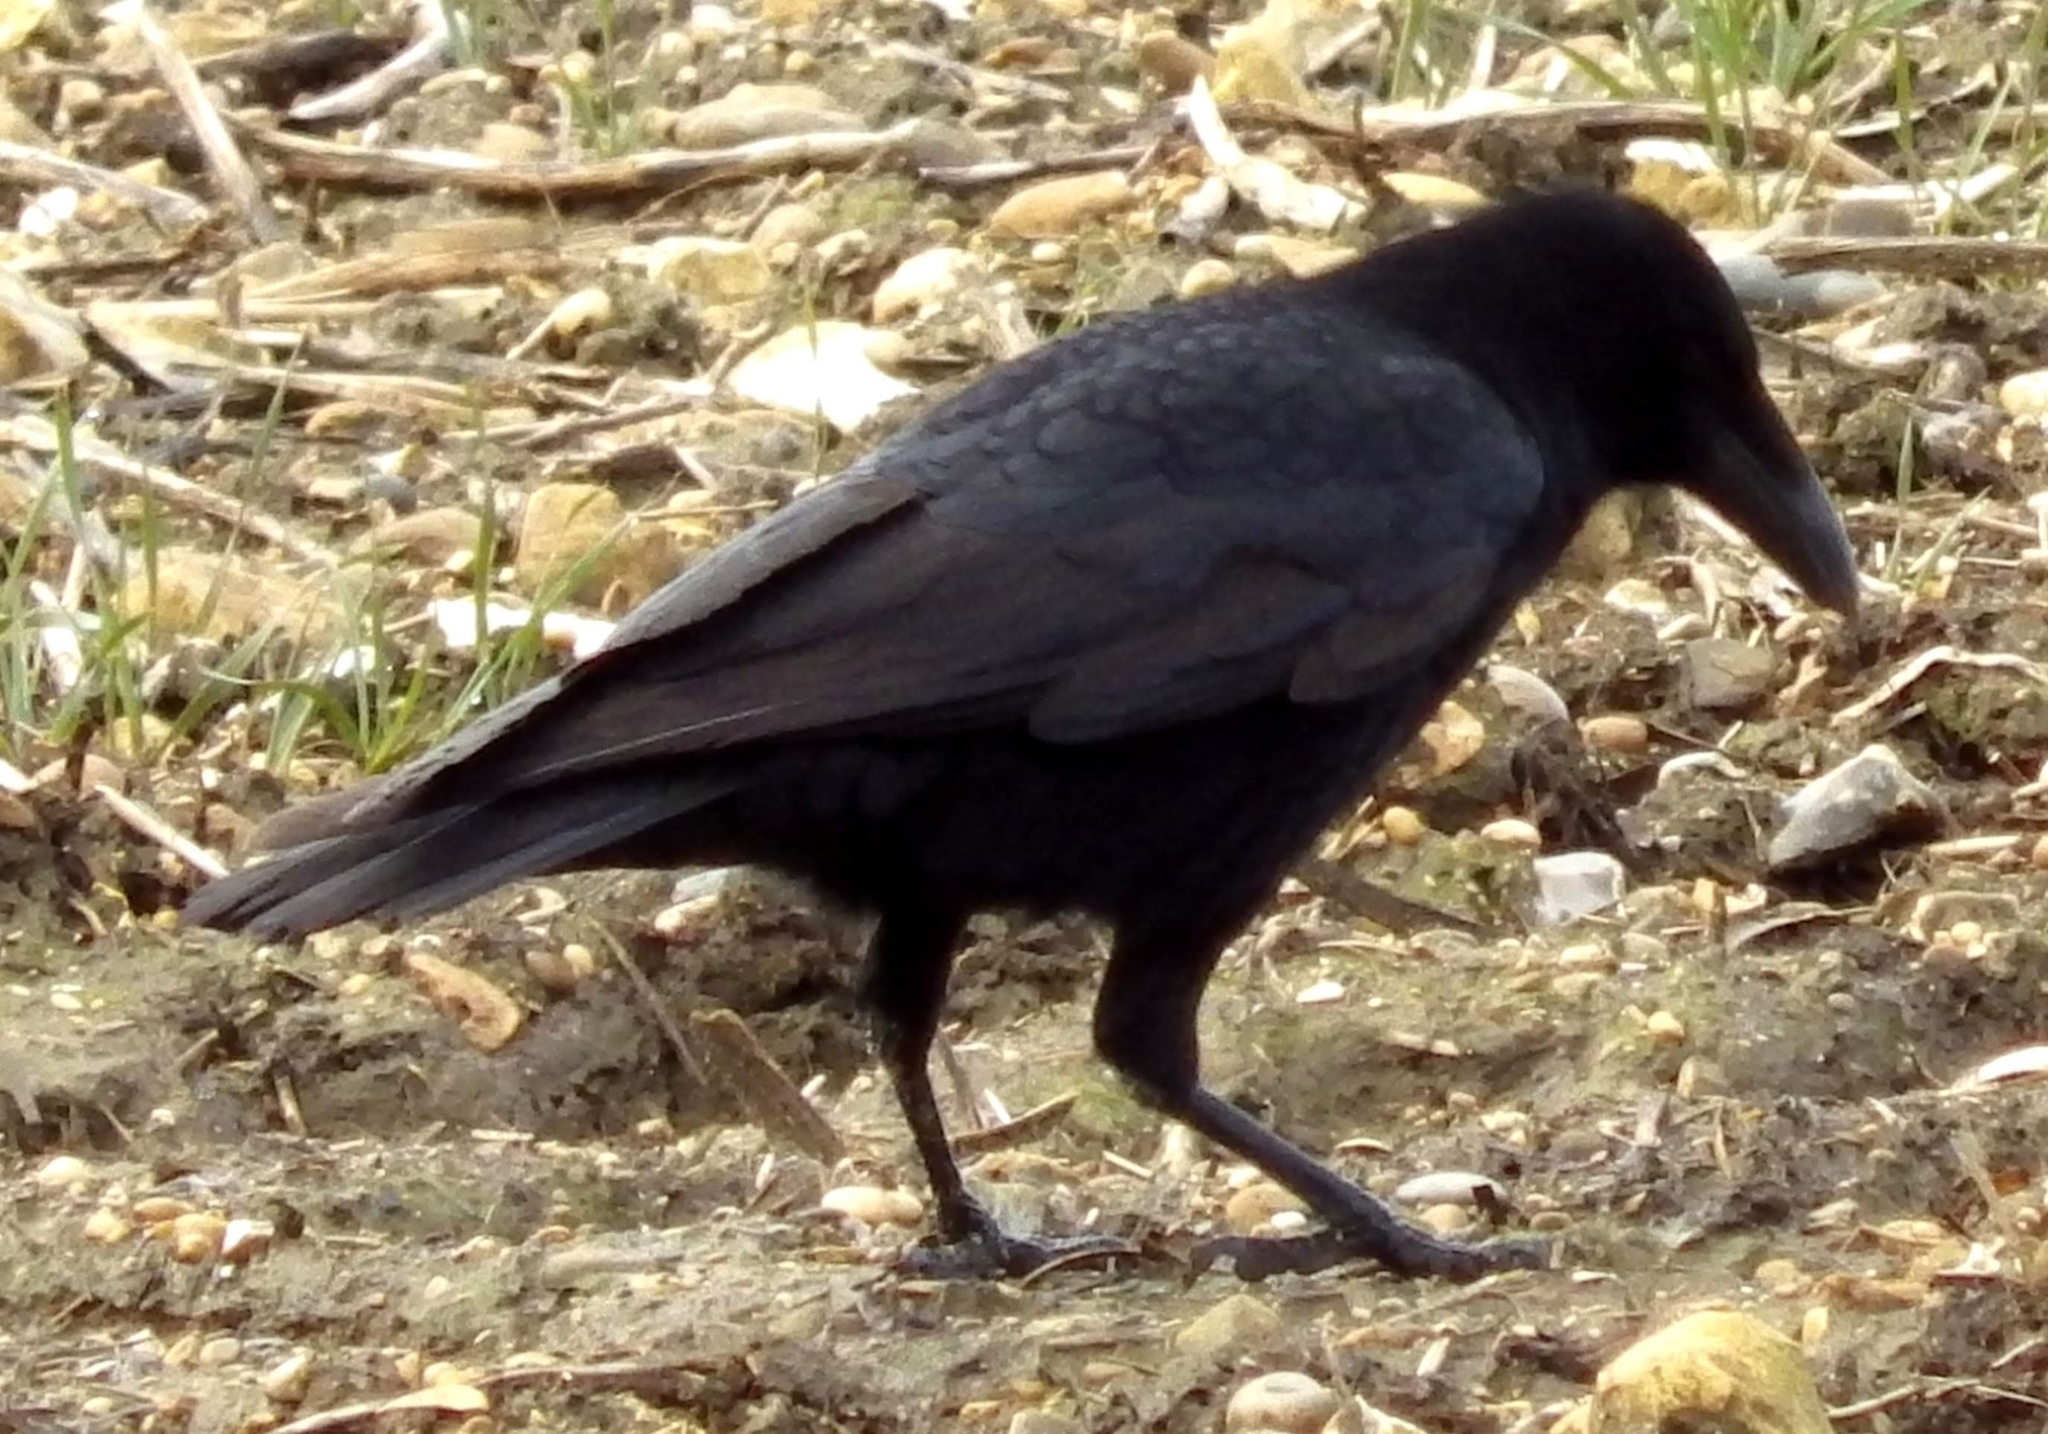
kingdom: Animalia
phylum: Chordata
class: Aves
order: Passeriformes
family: Corvidae
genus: Corvus
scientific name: Corvus corone
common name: Carrion crow
